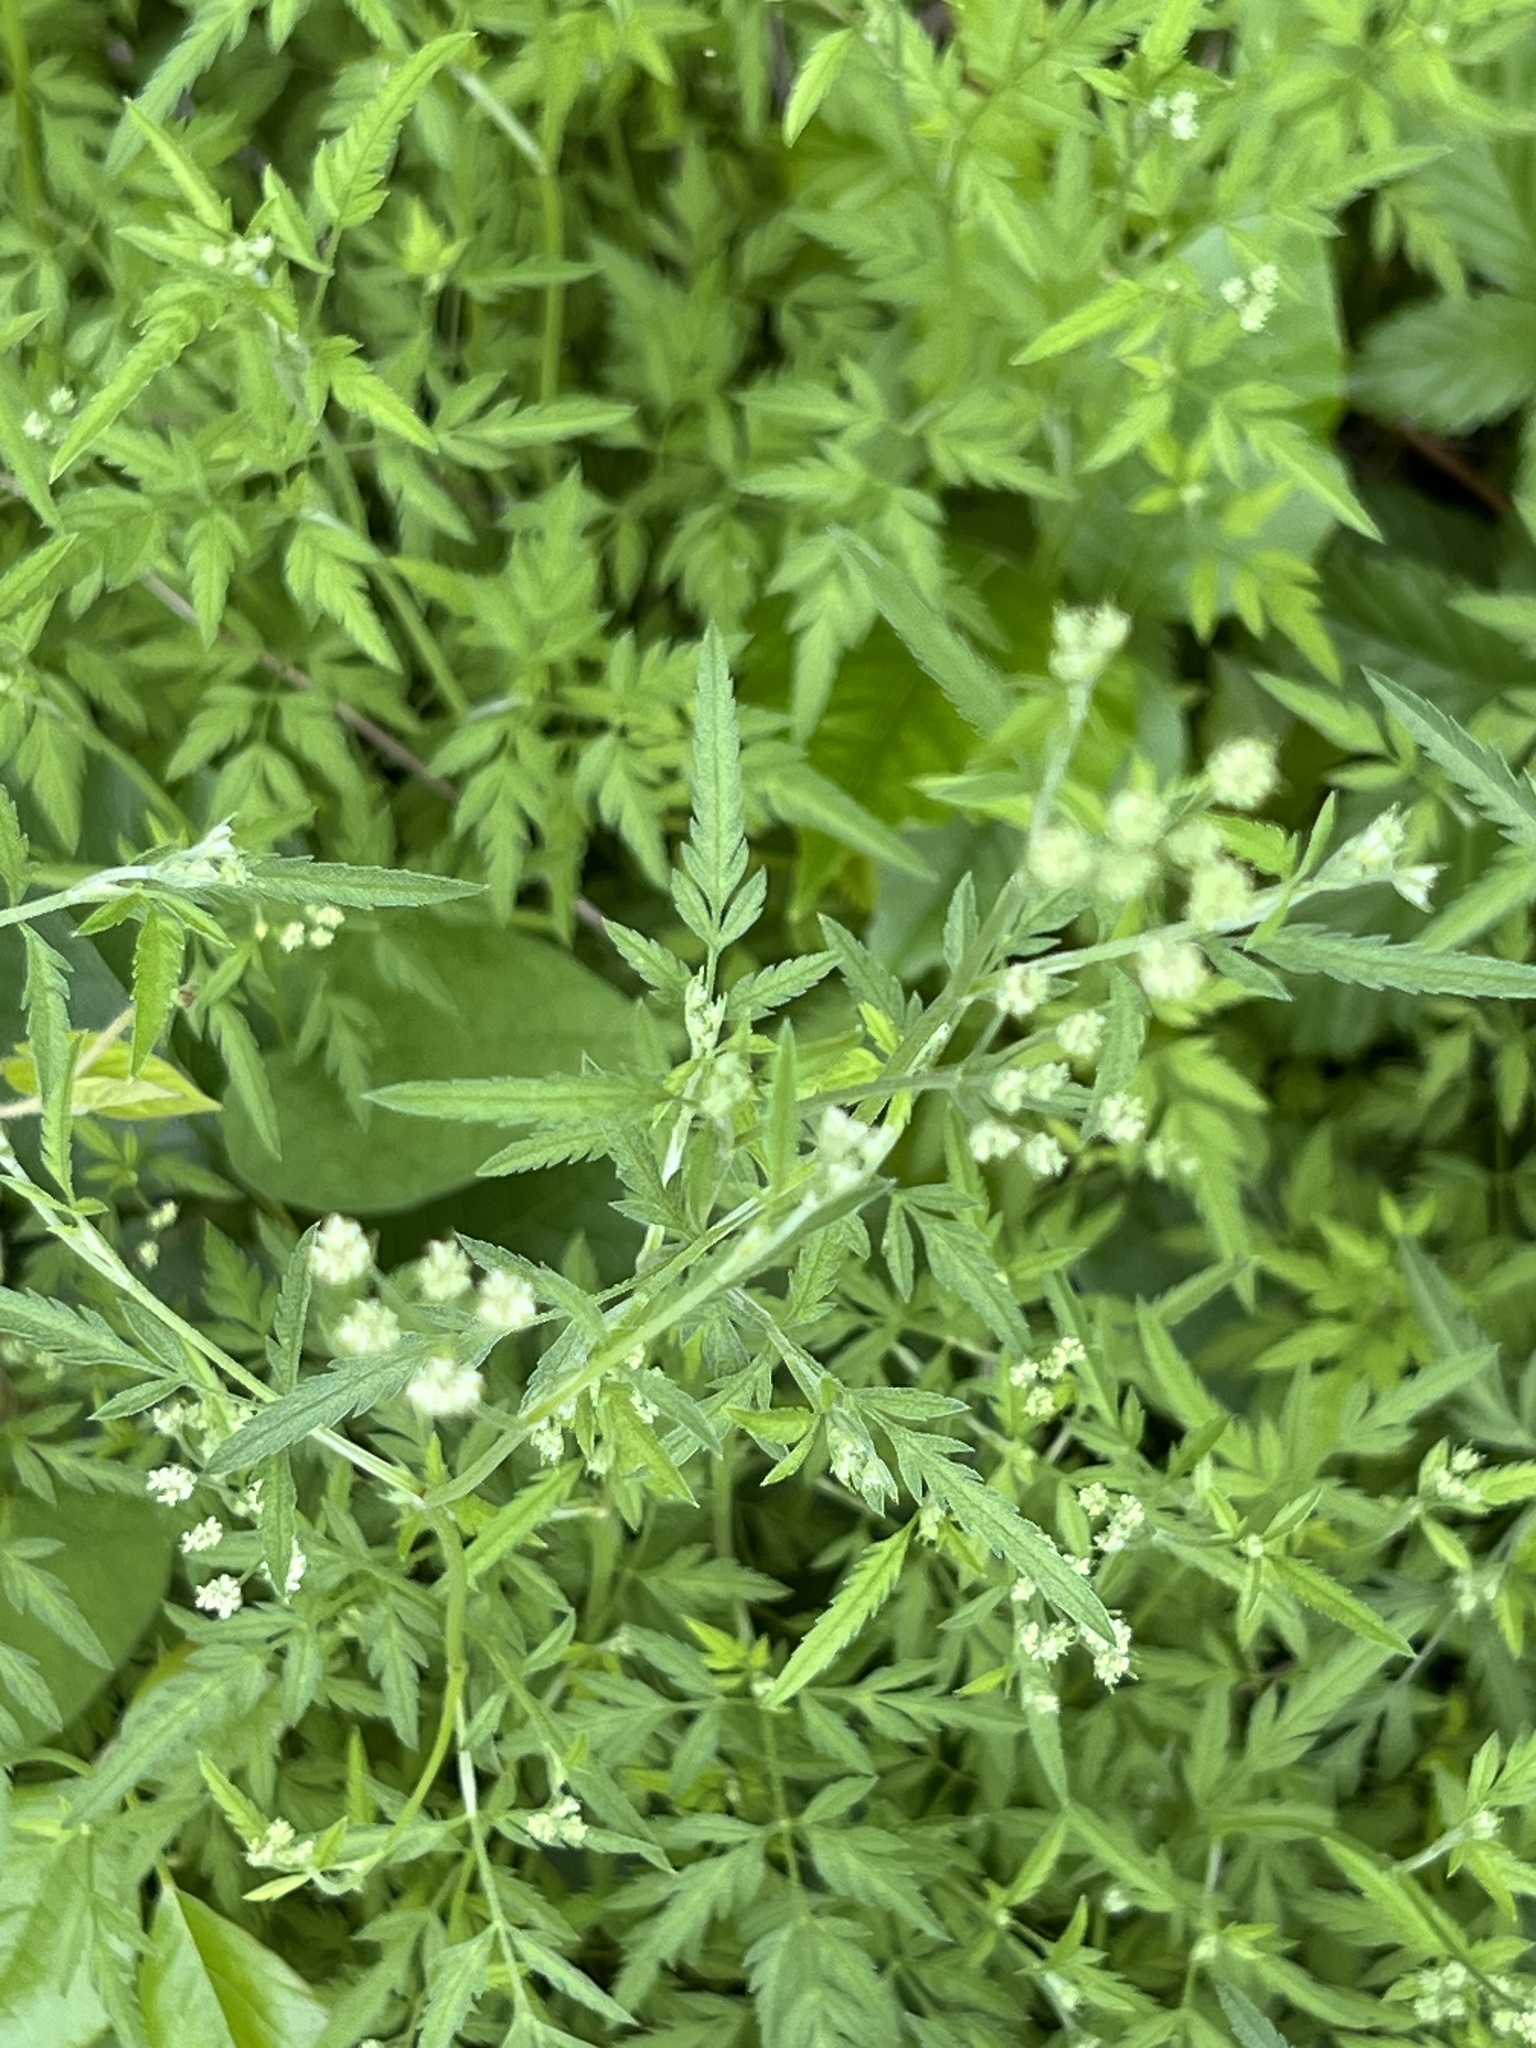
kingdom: Plantae
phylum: Tracheophyta
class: Magnoliopsida
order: Apiales
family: Apiaceae
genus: Torilis
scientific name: Torilis arvensis
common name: Spreading hedge-parsley
